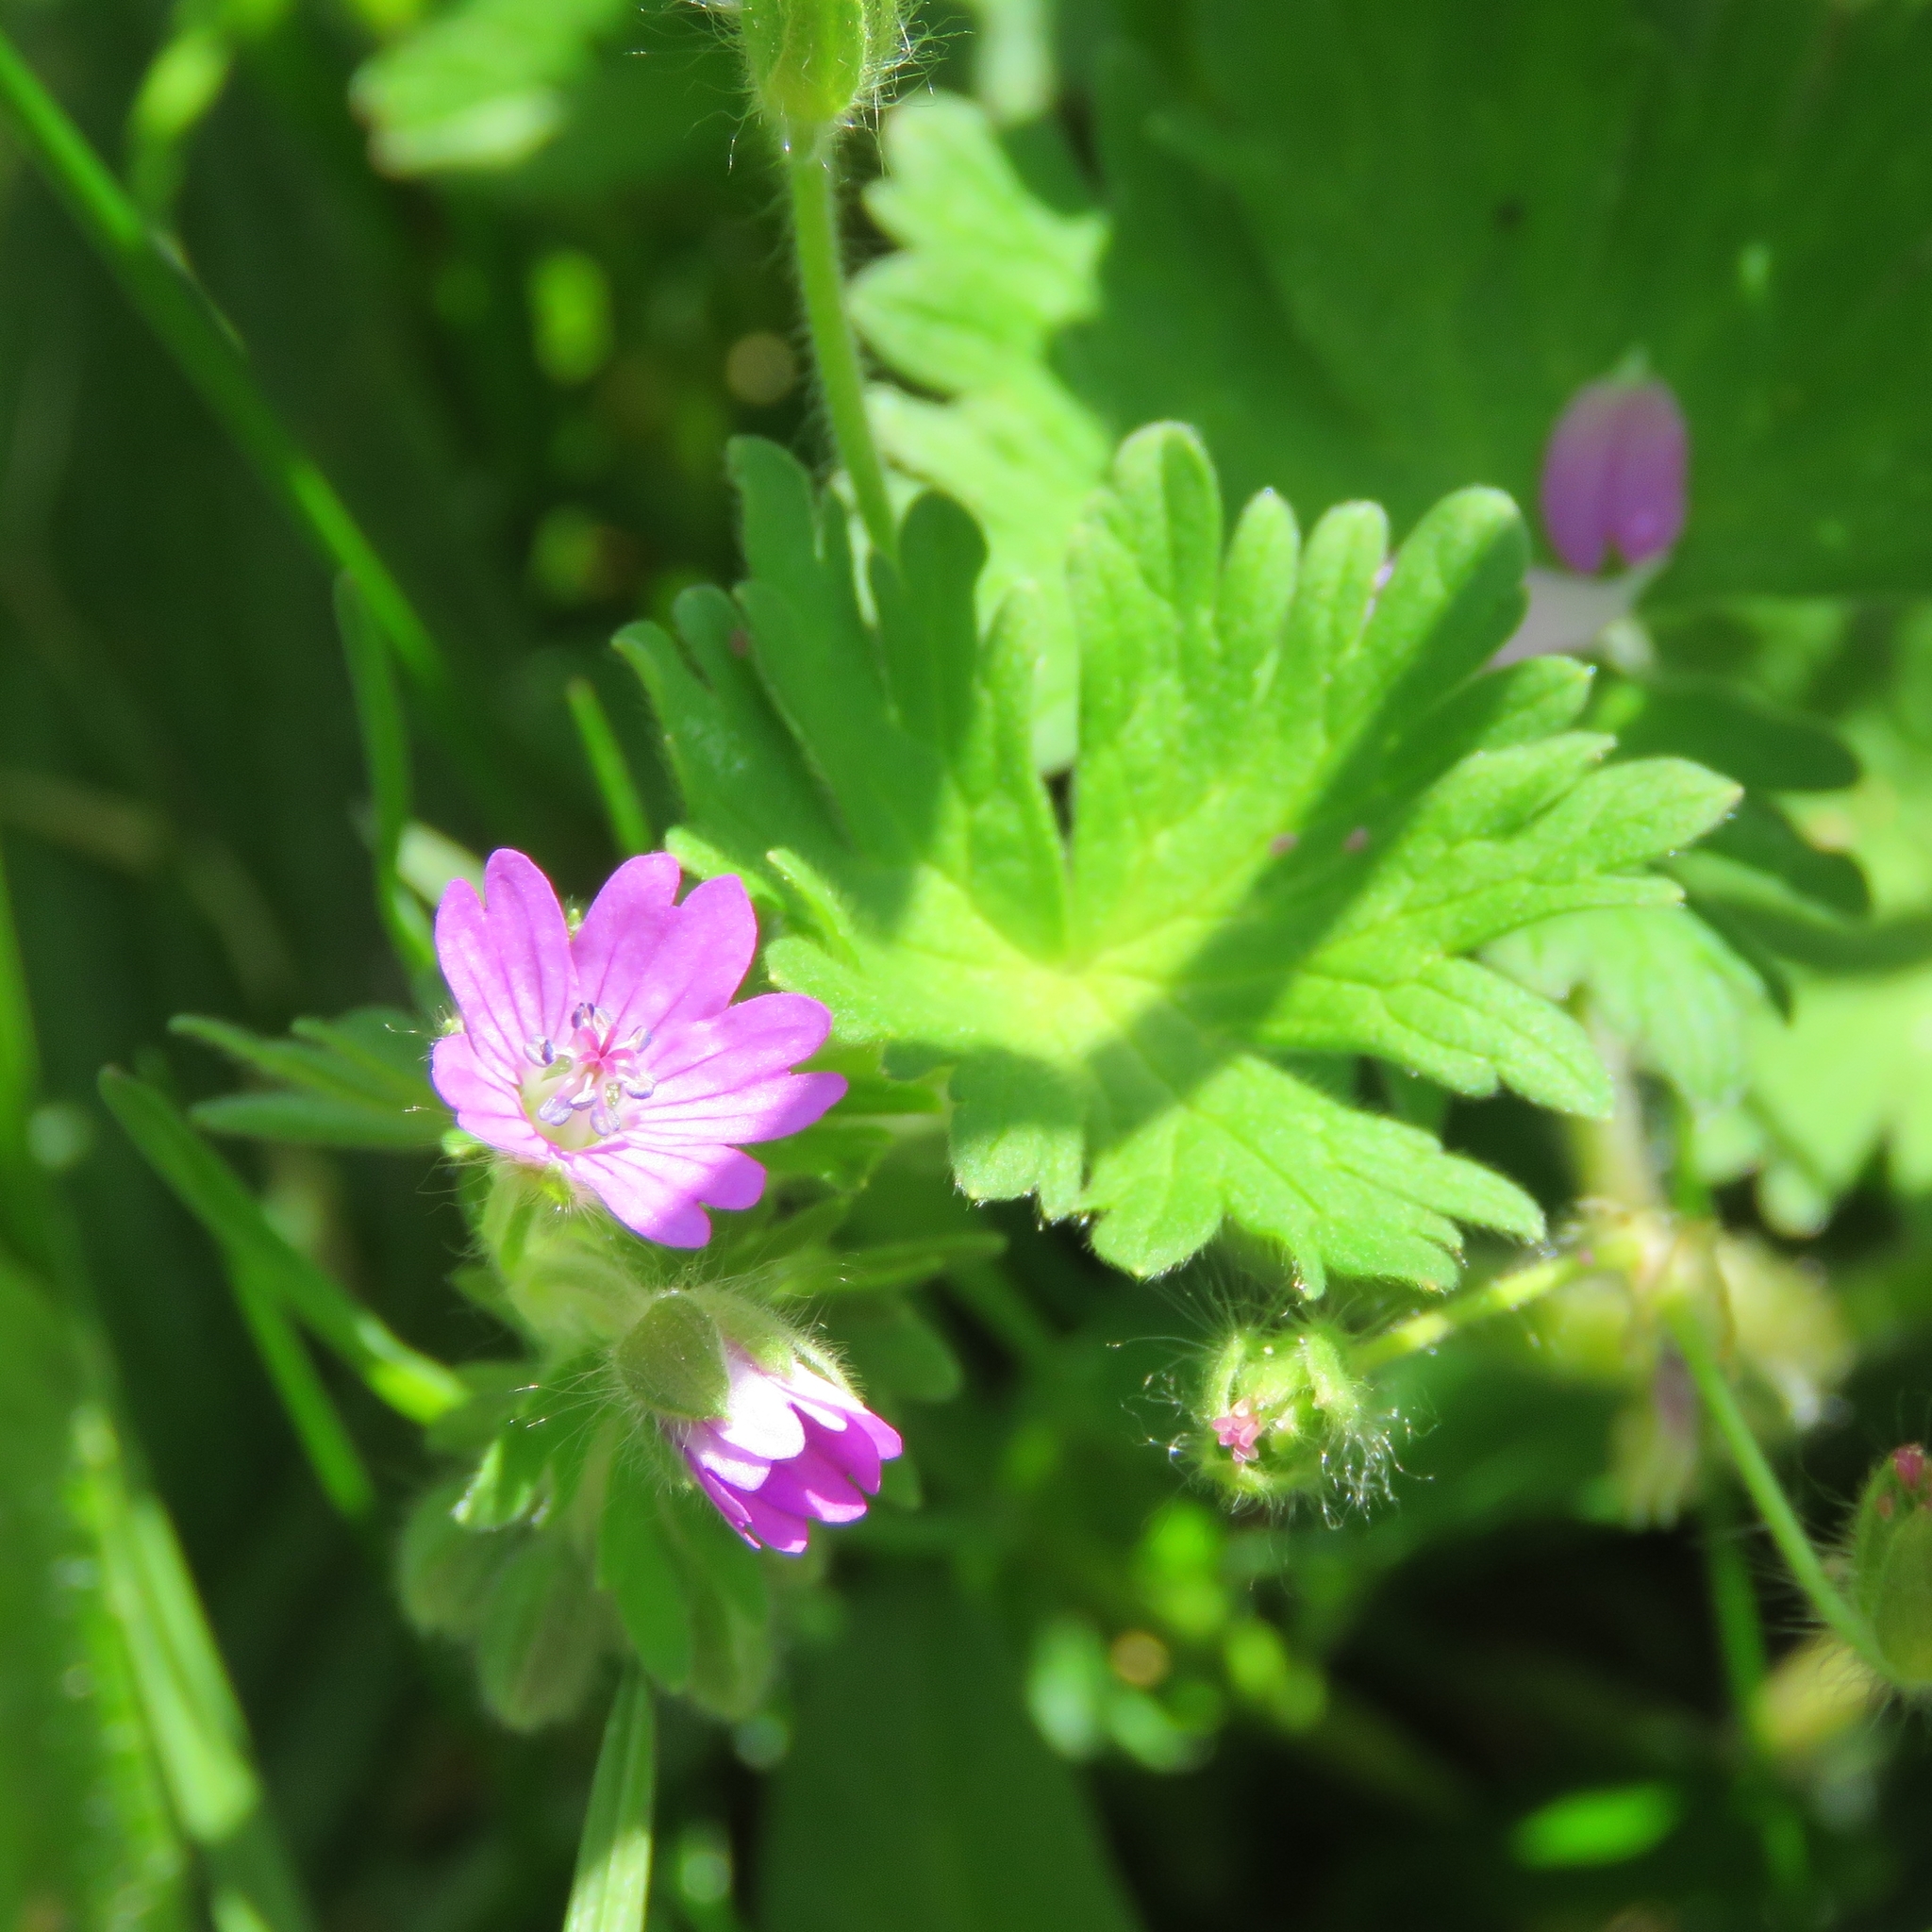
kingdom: Plantae
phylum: Tracheophyta
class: Magnoliopsida
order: Geraniales
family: Geraniaceae
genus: Geranium
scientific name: Geranium molle
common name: Dove's-foot crane's-bill
